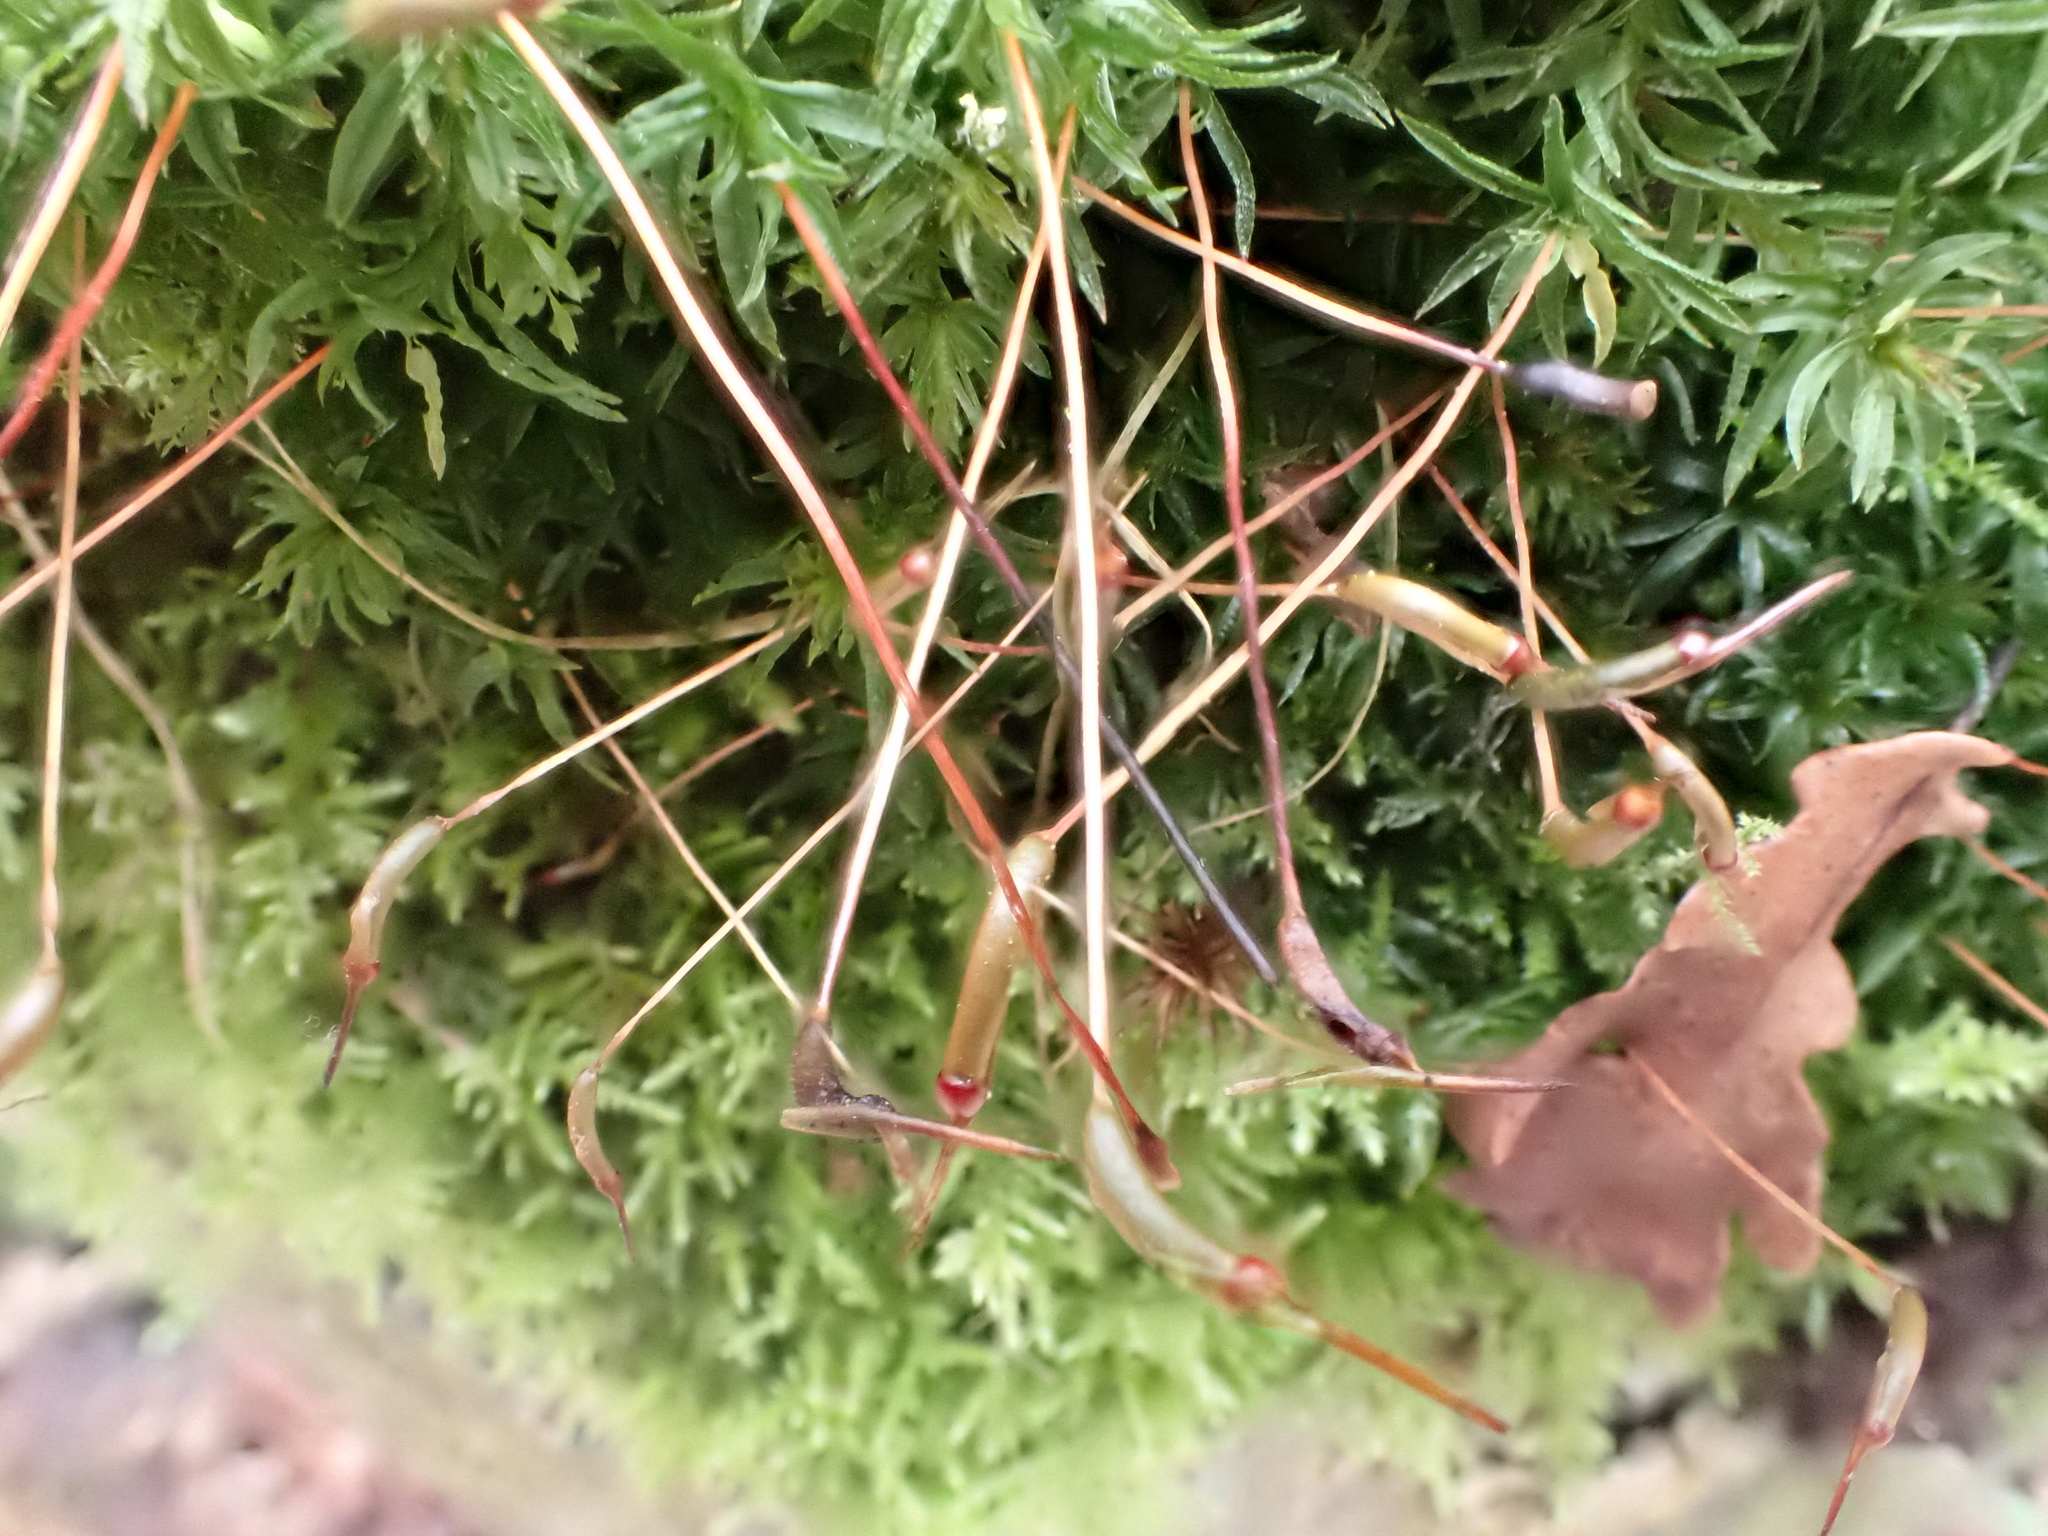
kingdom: Plantae
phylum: Bryophyta
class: Polytrichopsida
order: Polytrichales
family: Polytrichaceae
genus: Atrichum
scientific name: Atrichum undulatum
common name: Common smoothcap
